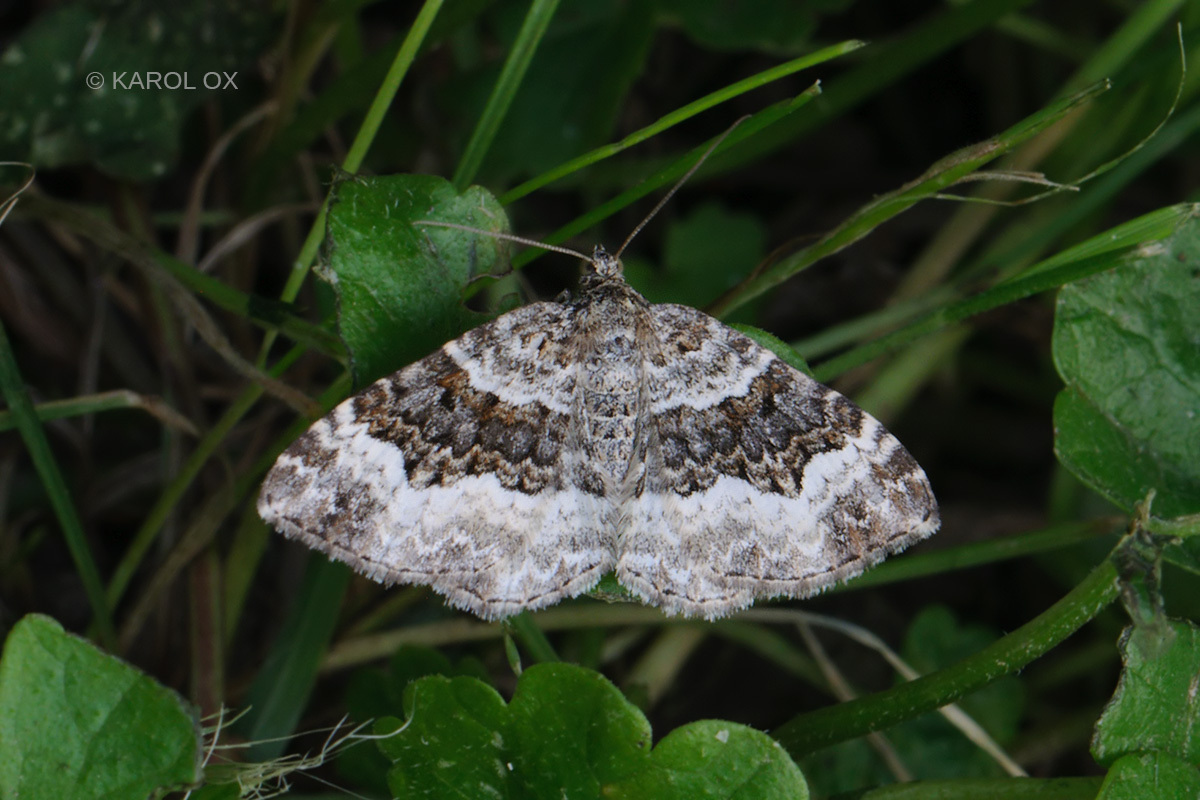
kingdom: Animalia
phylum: Arthropoda
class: Insecta
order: Lepidoptera
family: Geometridae
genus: Epirrhoe
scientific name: Epirrhoe alternata
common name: Common carpet
